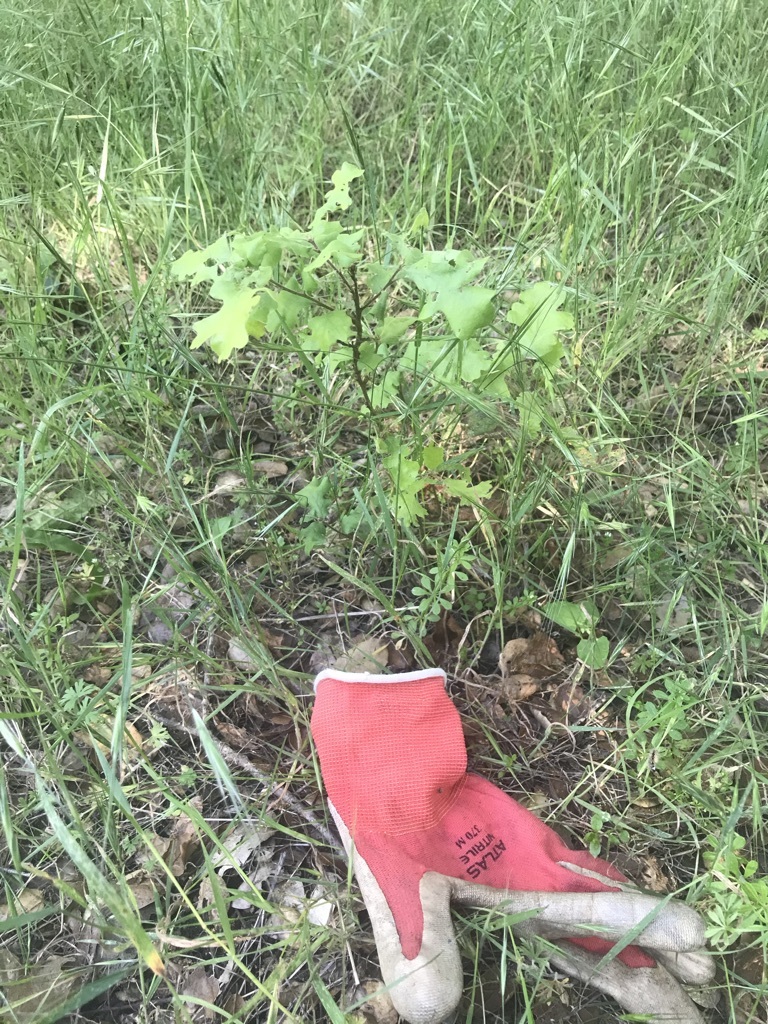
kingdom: Plantae
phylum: Tracheophyta
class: Magnoliopsida
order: Fagales
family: Fagaceae
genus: Quercus
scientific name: Quercus lobata
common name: Valley oak
